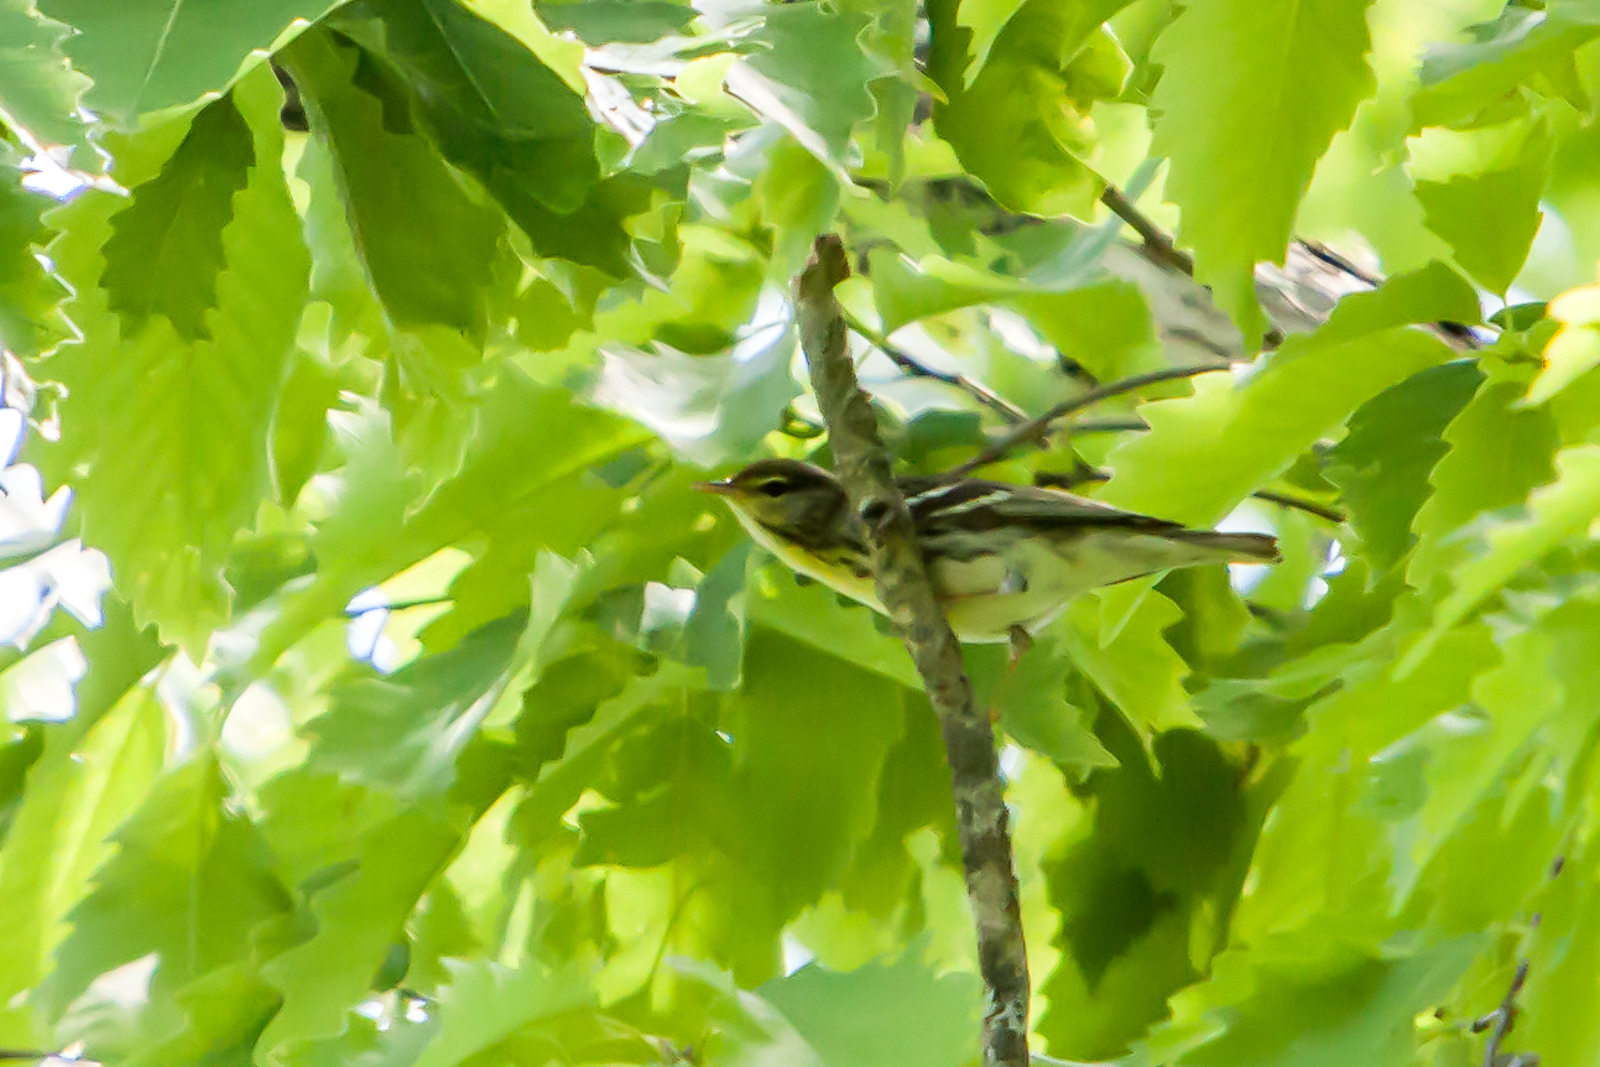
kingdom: Animalia
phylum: Chordata
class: Aves
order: Passeriformes
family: Parulidae
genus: Setophaga
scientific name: Setophaga fusca
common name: Blackburnian warbler
